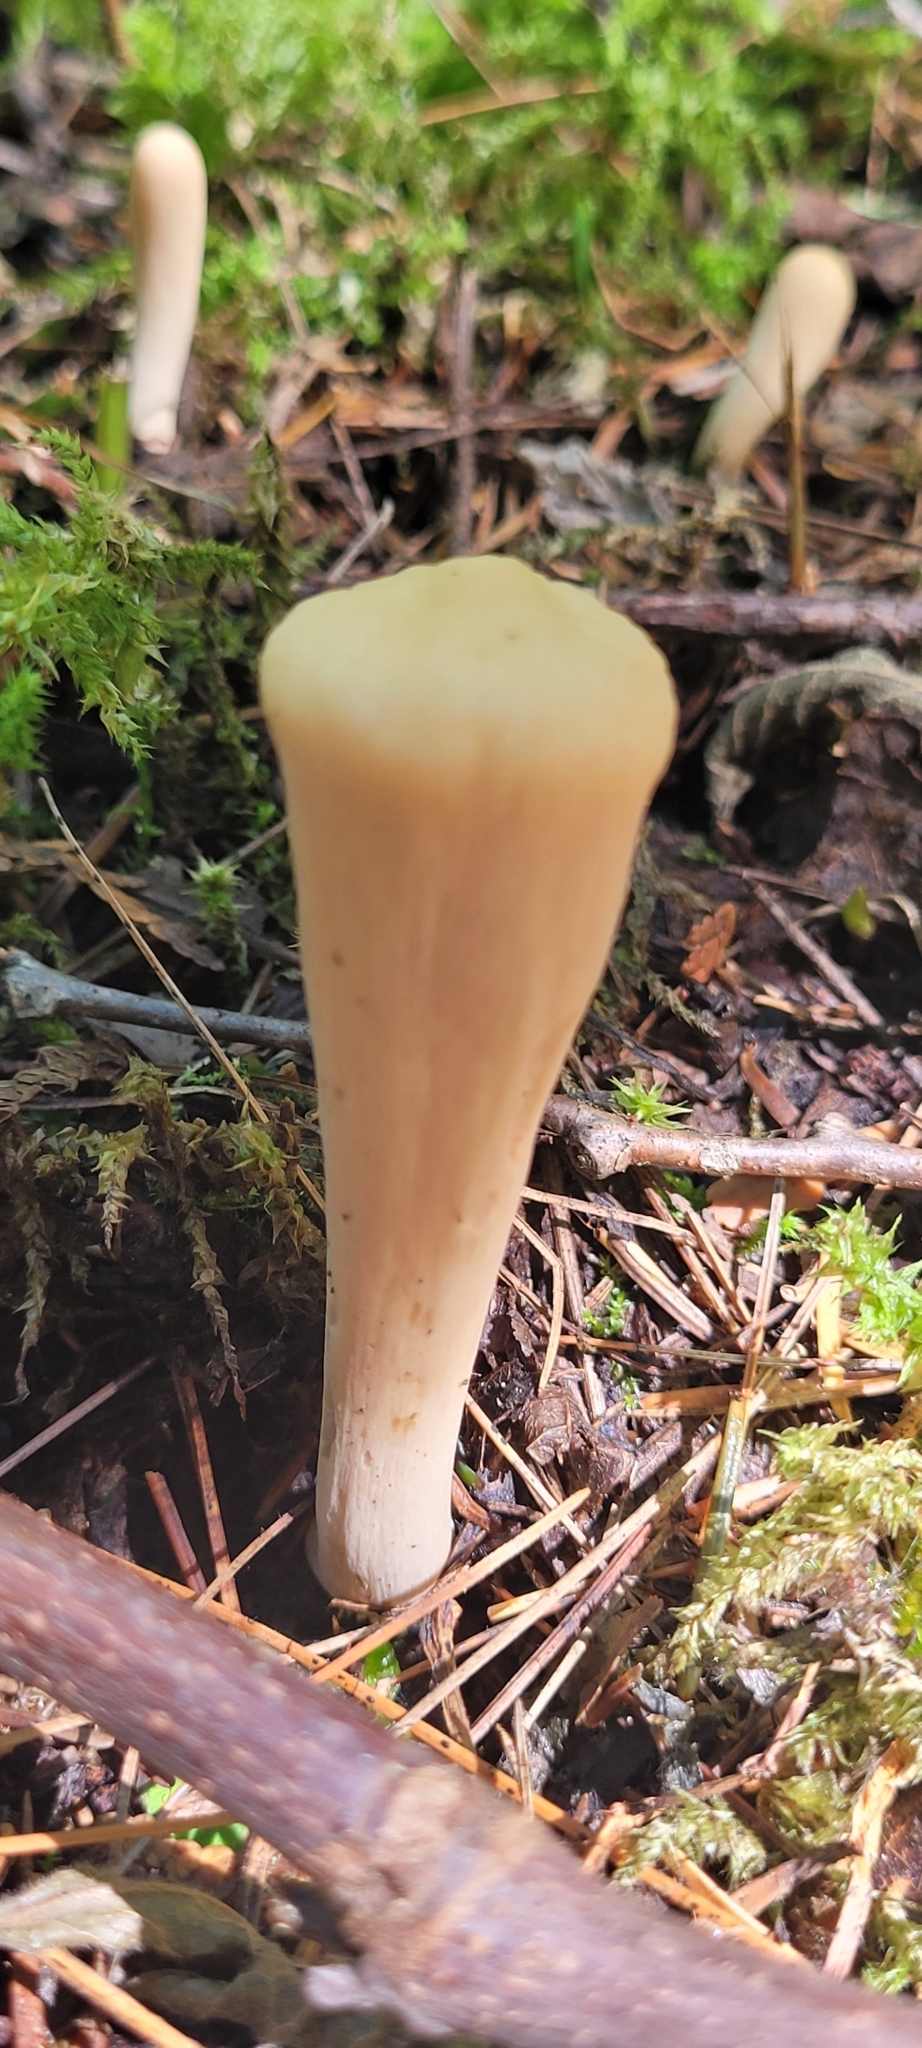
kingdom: Fungi
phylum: Basidiomycota
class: Agaricomycetes
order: Gomphales
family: Clavariadelphaceae
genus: Clavariadelphus
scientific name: Clavariadelphus truncatus
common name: Truncated club
